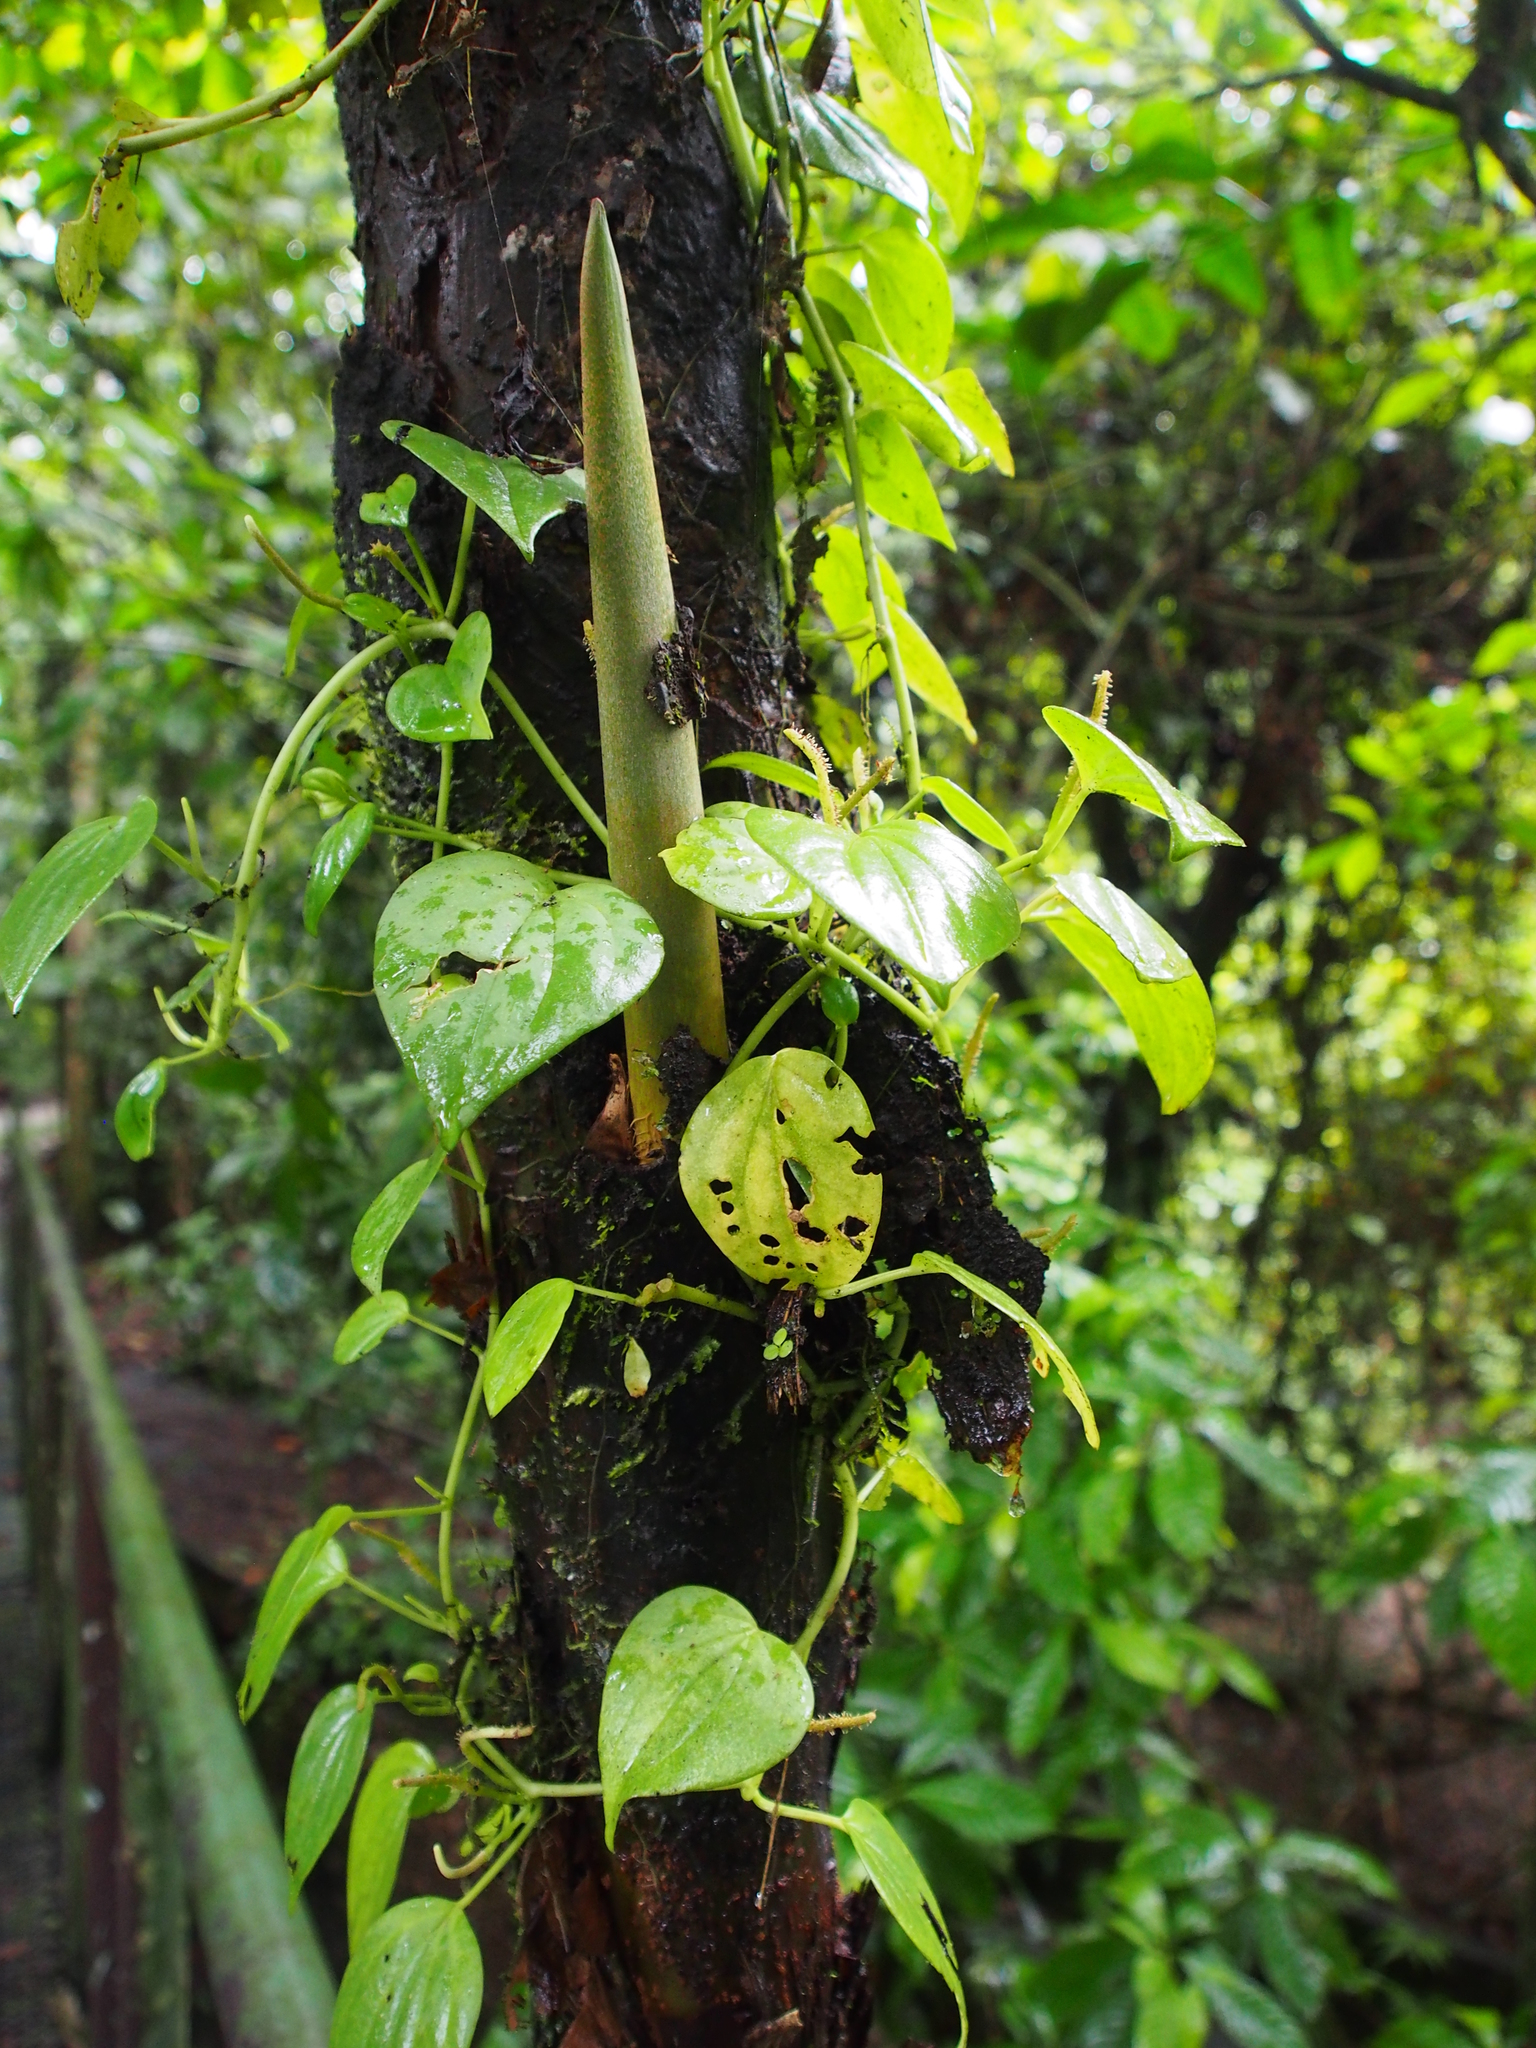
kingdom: Plantae
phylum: Tracheophyta
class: Magnoliopsida
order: Piperales
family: Piperaceae
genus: Peperomia
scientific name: Peperomia urocarpa
